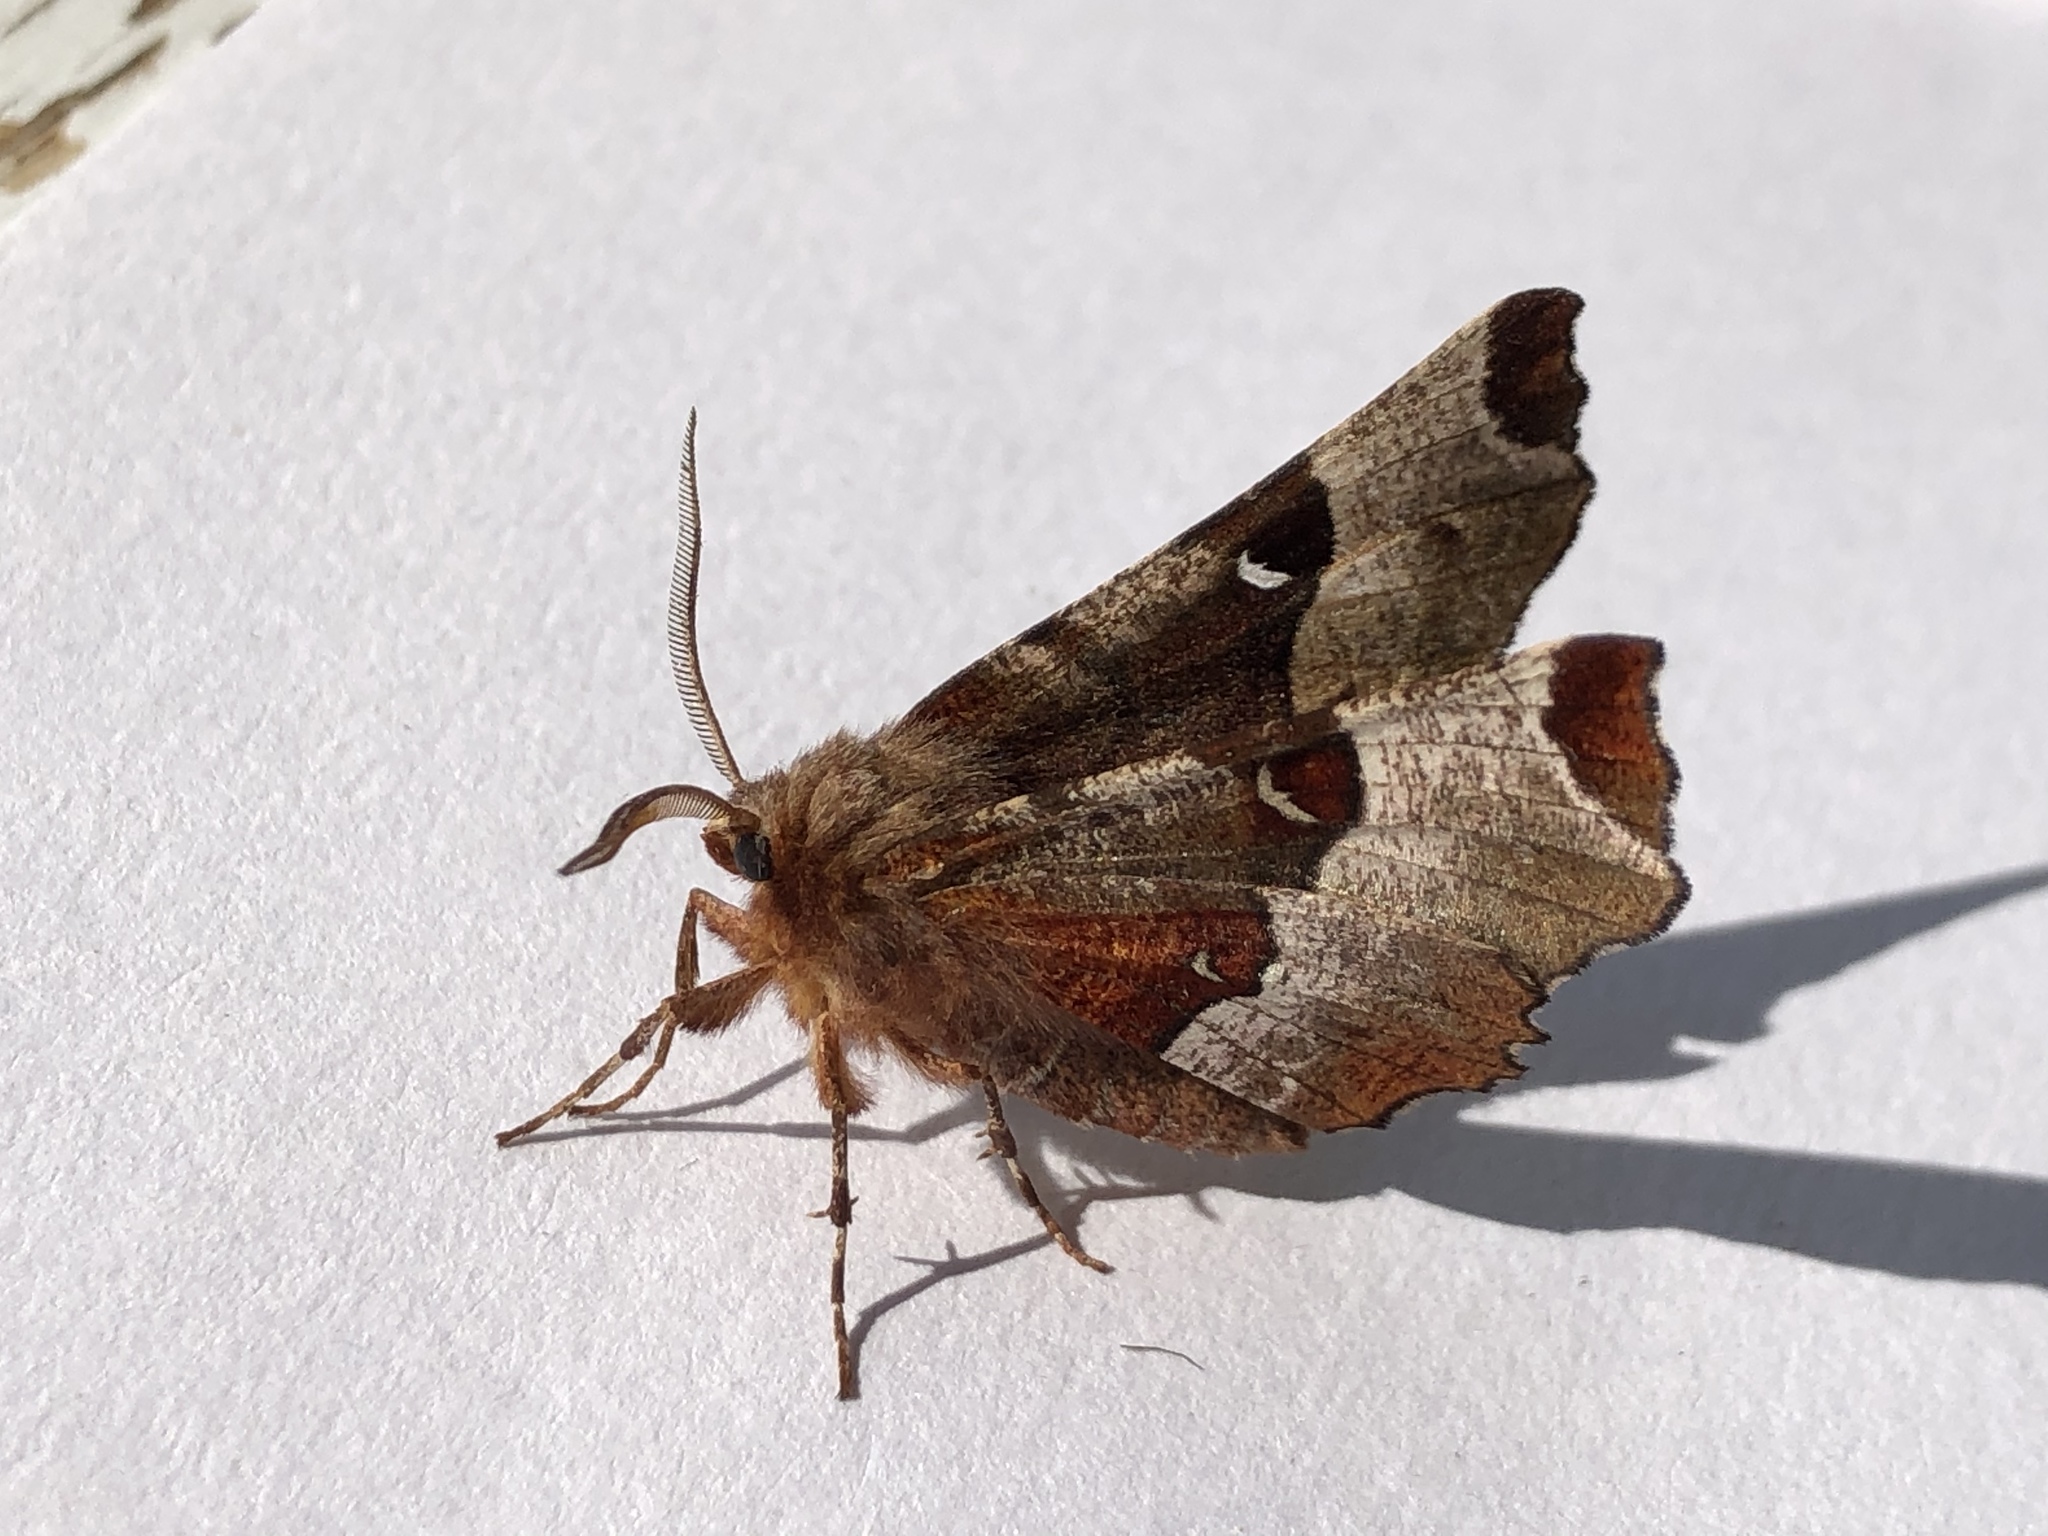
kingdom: Animalia
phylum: Arthropoda
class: Insecta
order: Lepidoptera
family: Geometridae
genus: Selenia
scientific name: Selenia tetralunaria
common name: Purple thorn
